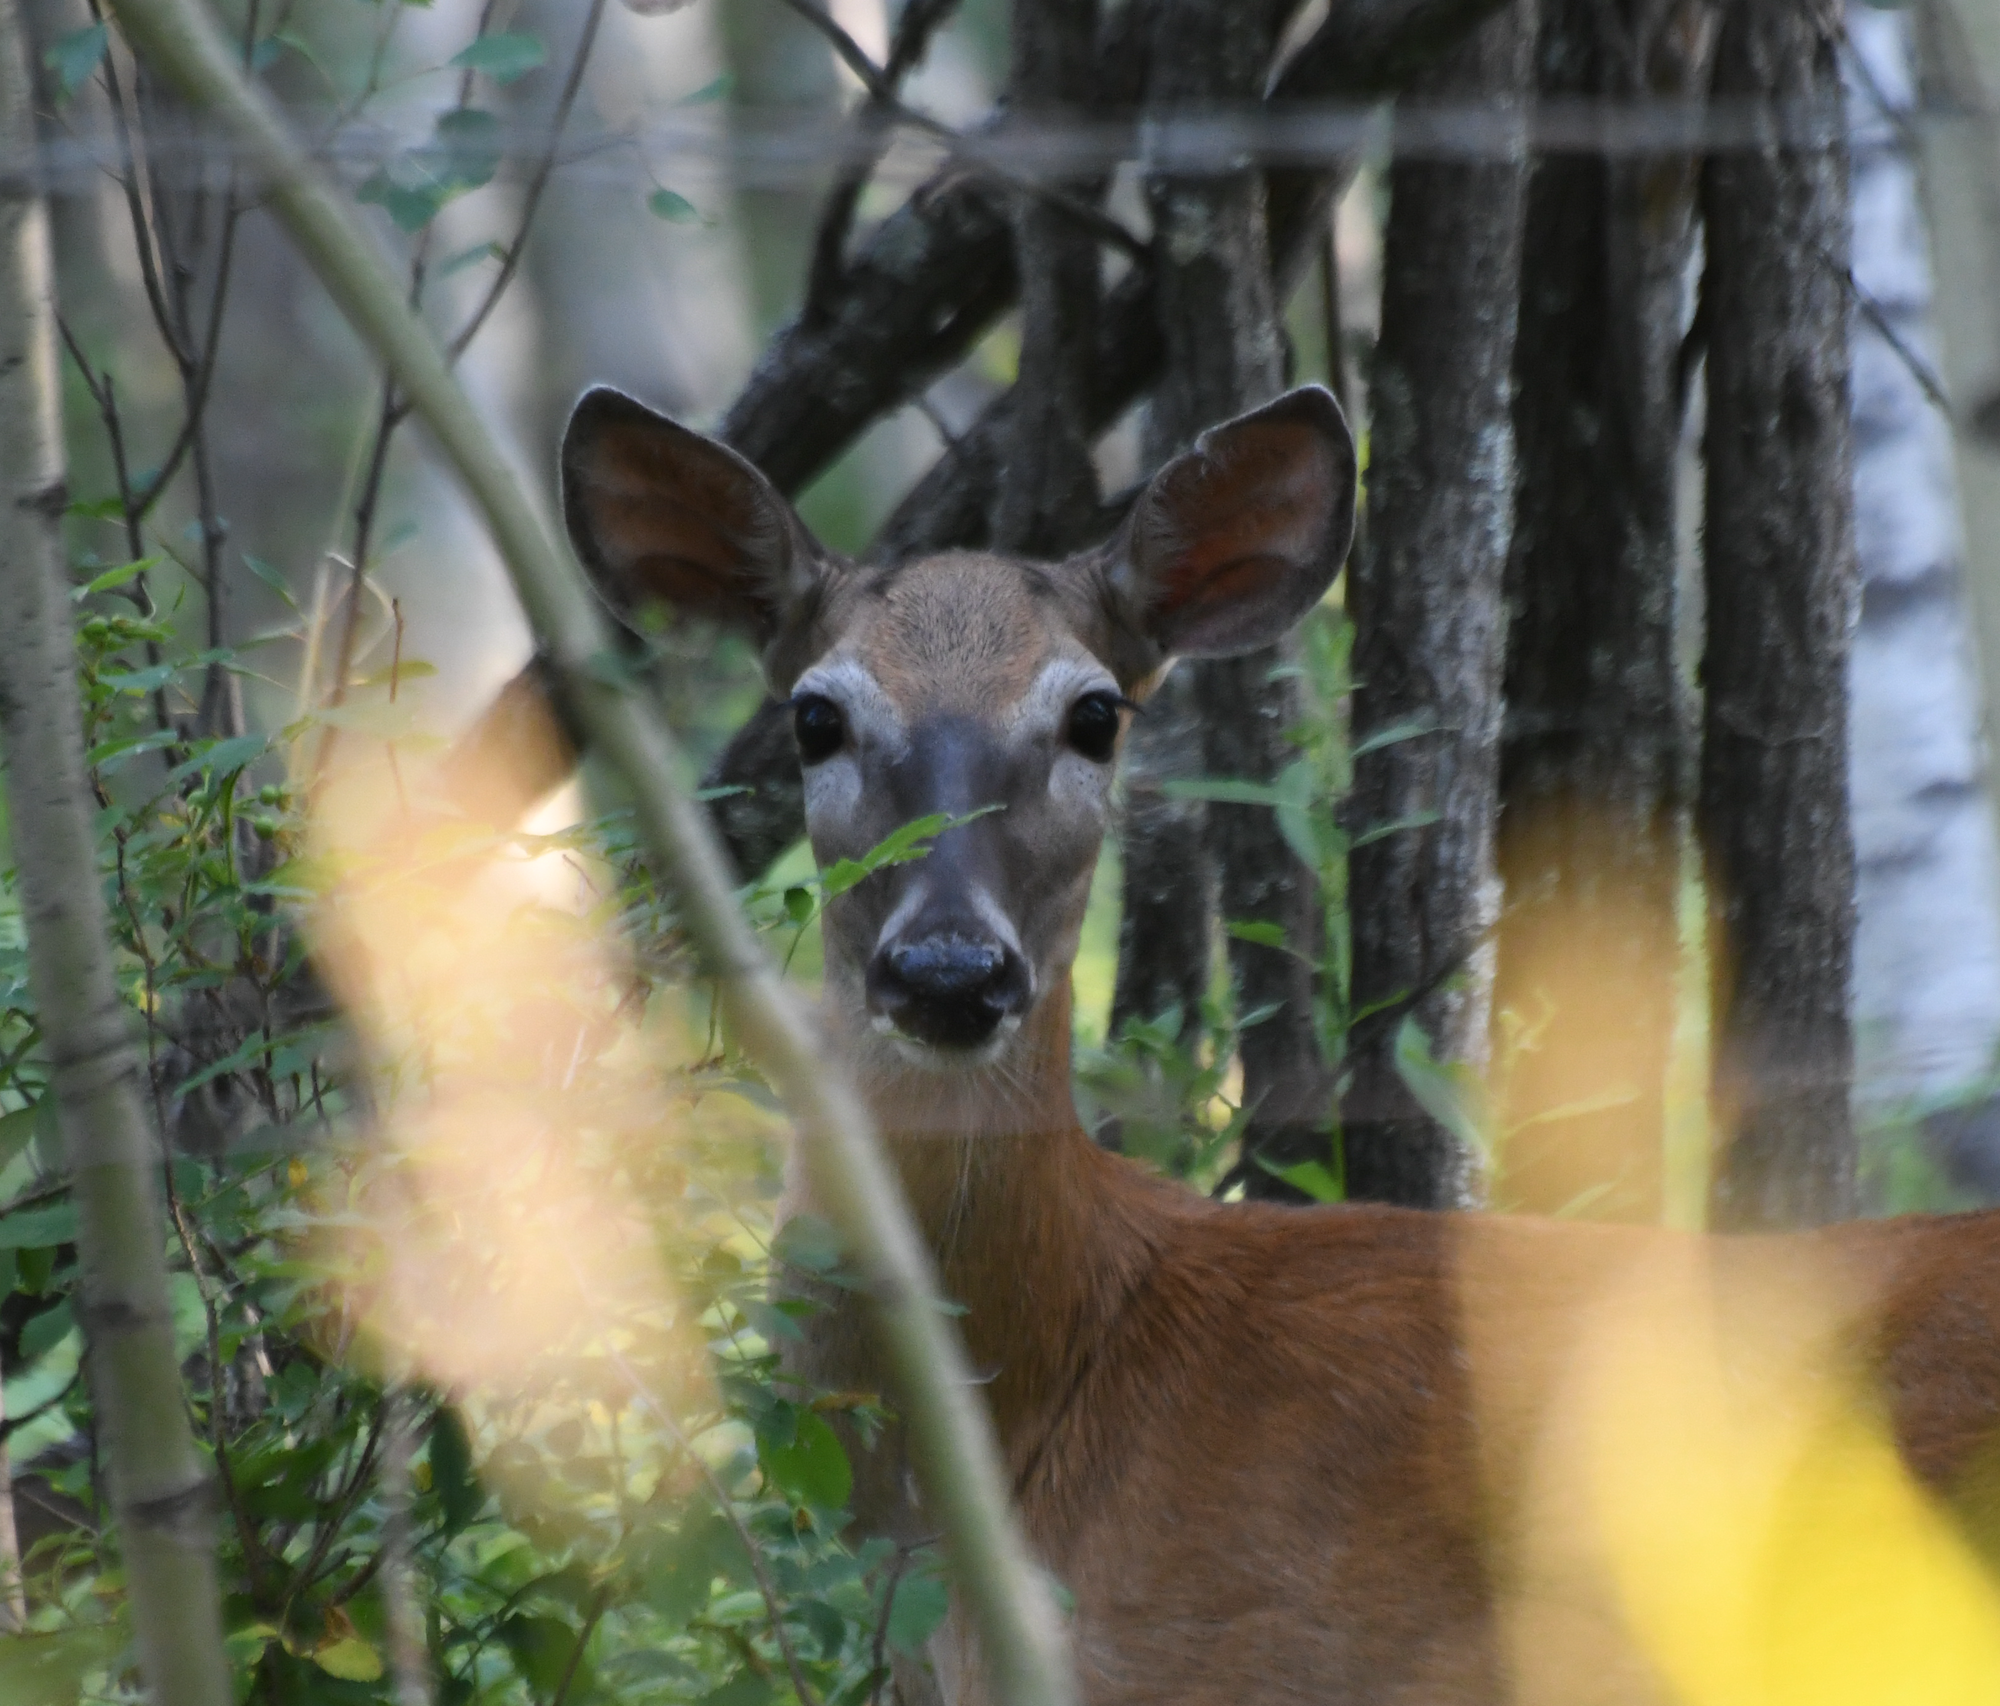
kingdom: Animalia
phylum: Chordata
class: Mammalia
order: Artiodactyla
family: Cervidae
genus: Odocoileus
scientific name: Odocoileus virginianus
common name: White-tailed deer
